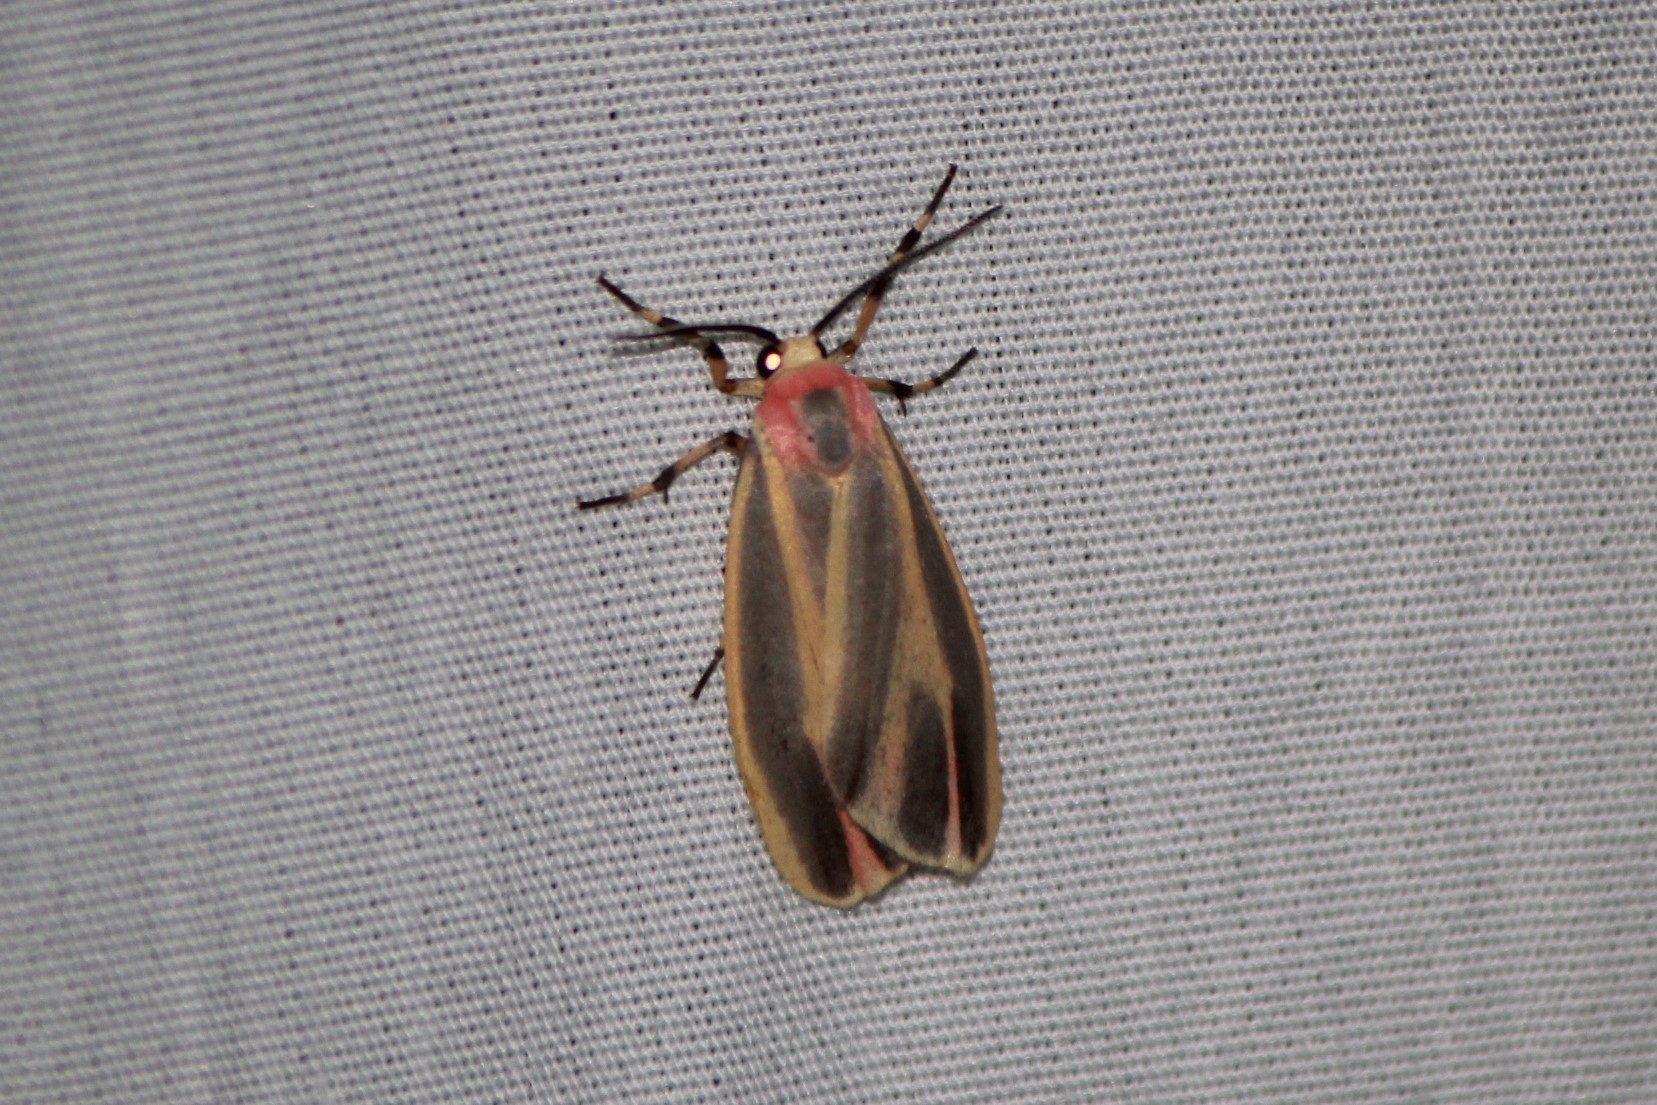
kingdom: Animalia
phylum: Arthropoda
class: Insecta
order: Lepidoptera
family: Erebidae
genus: Hypoprepia
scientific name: Hypoprepia fucosa
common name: Painted lichen moth
